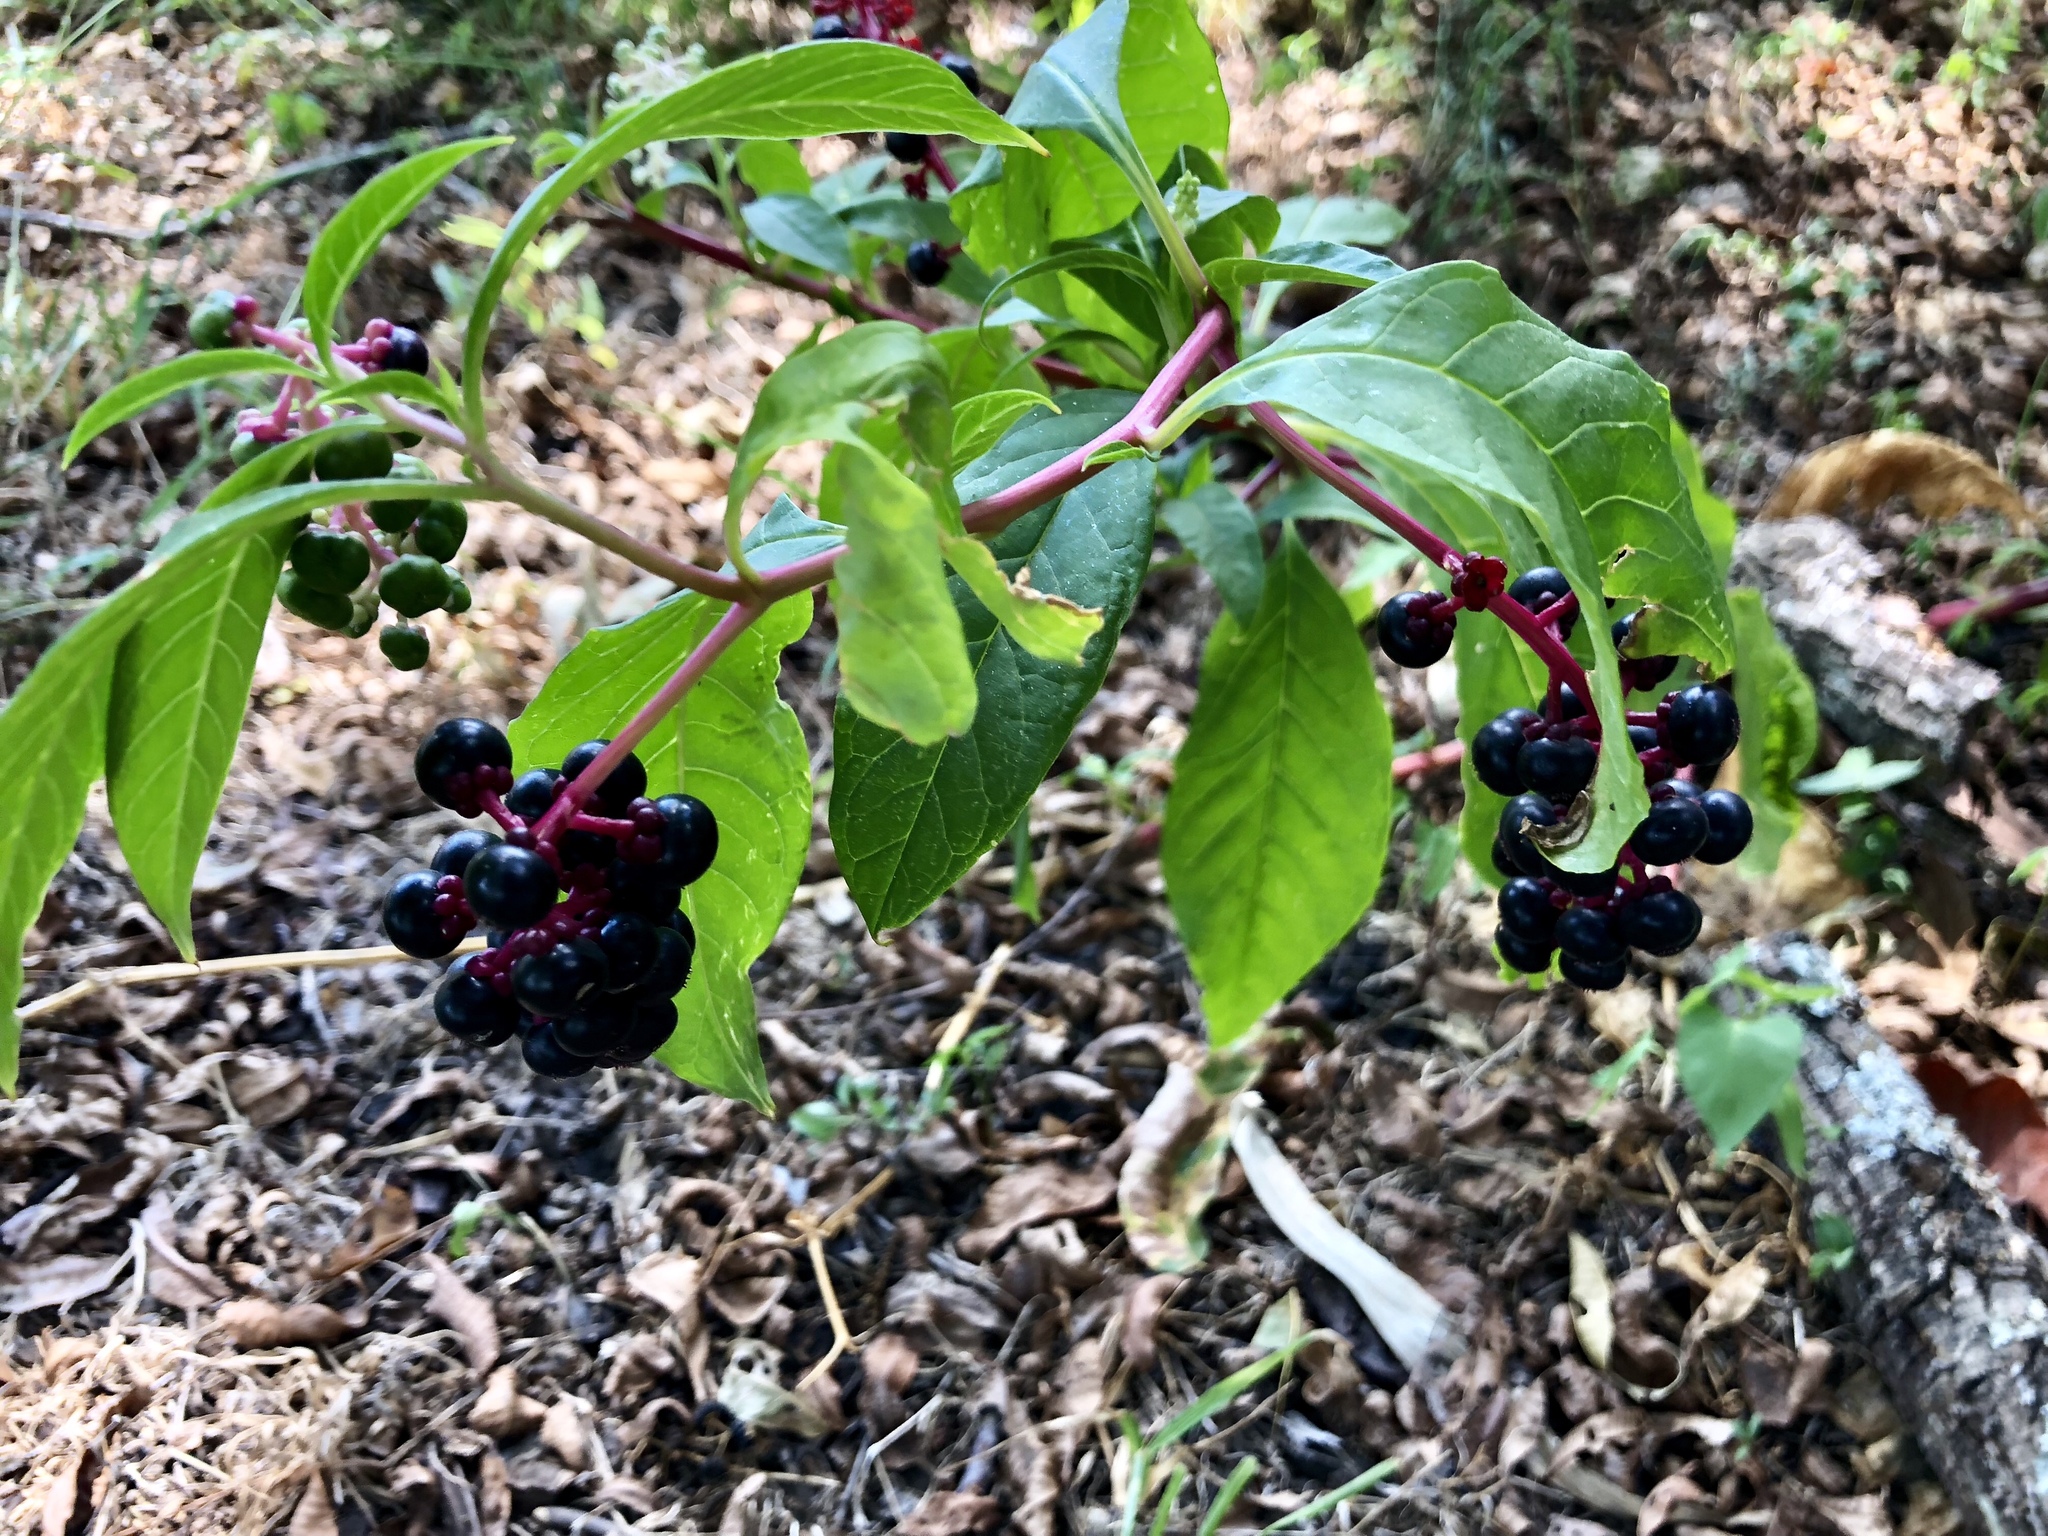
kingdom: Plantae
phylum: Tracheophyta
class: Magnoliopsida
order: Caryophyllales
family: Phytolaccaceae
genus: Phytolacca
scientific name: Phytolacca americana
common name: American pokeweed
